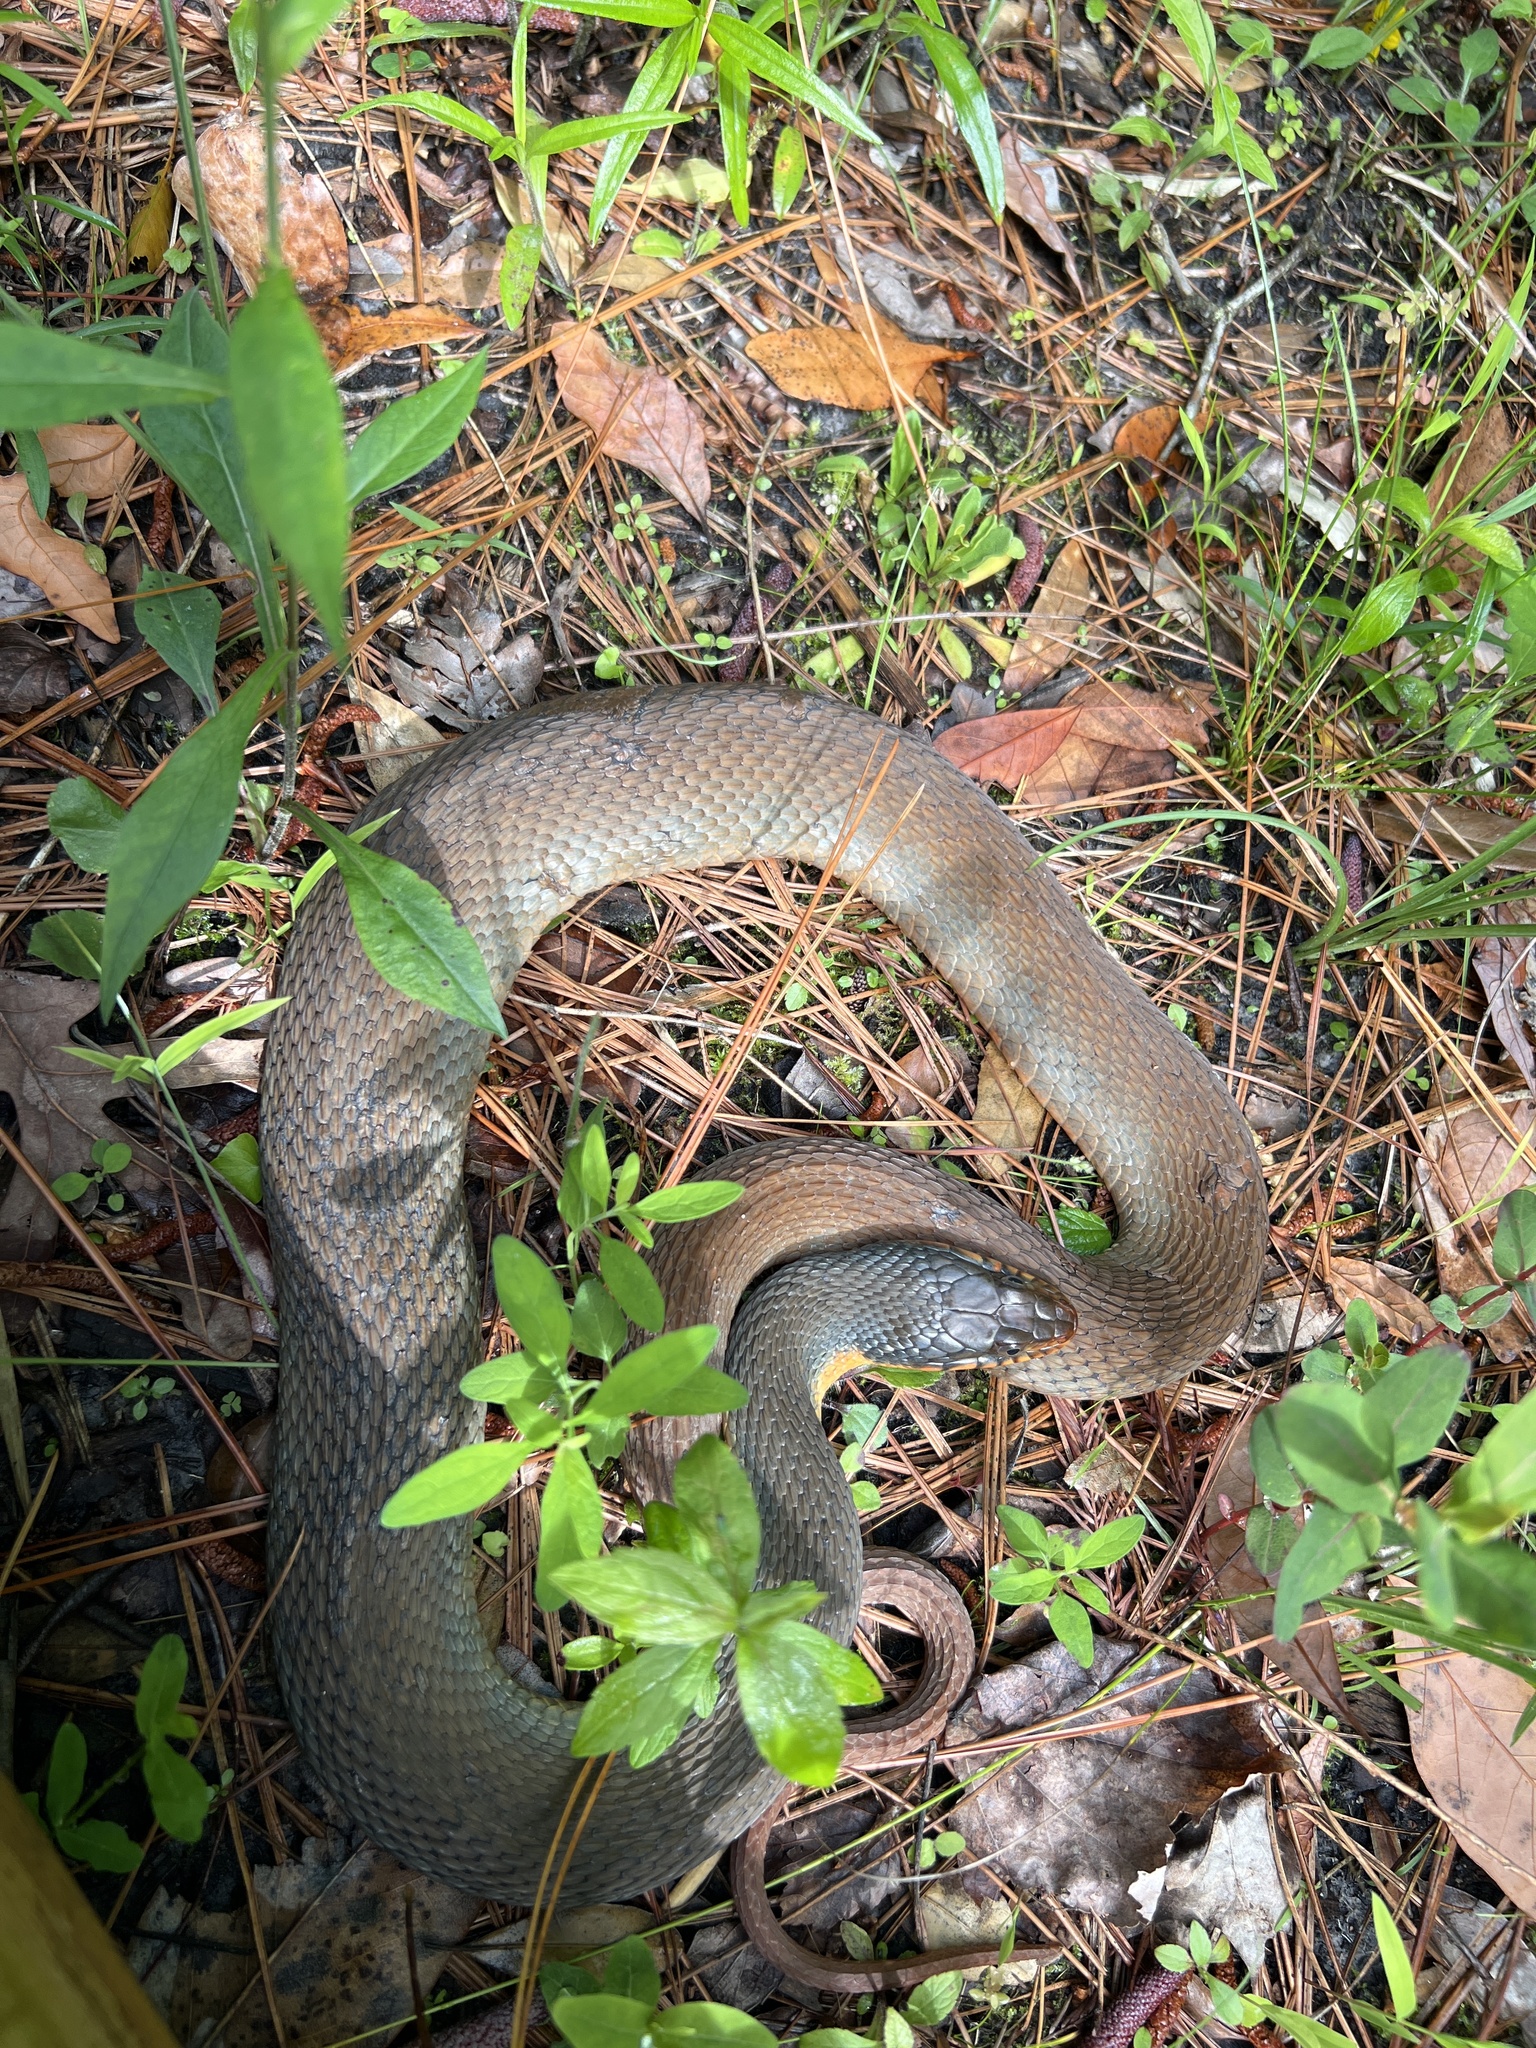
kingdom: Animalia
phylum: Chordata
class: Squamata
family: Colubridae
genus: Nerodia
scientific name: Nerodia erythrogaster
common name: Plainbelly water snake
